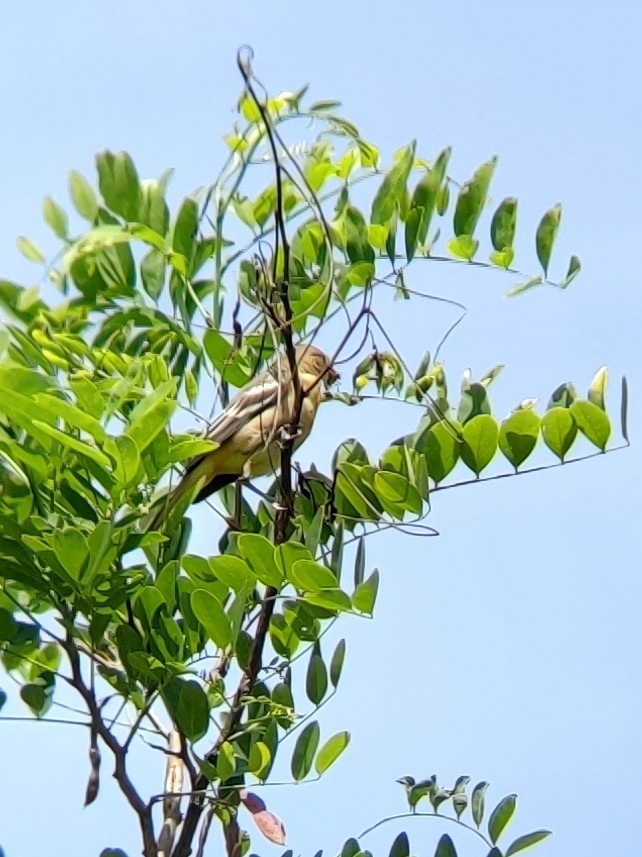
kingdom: Animalia
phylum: Chordata
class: Aves
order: Passeriformes
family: Icteridae
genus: Icterus
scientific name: Icterus galbula
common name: Baltimore oriole
